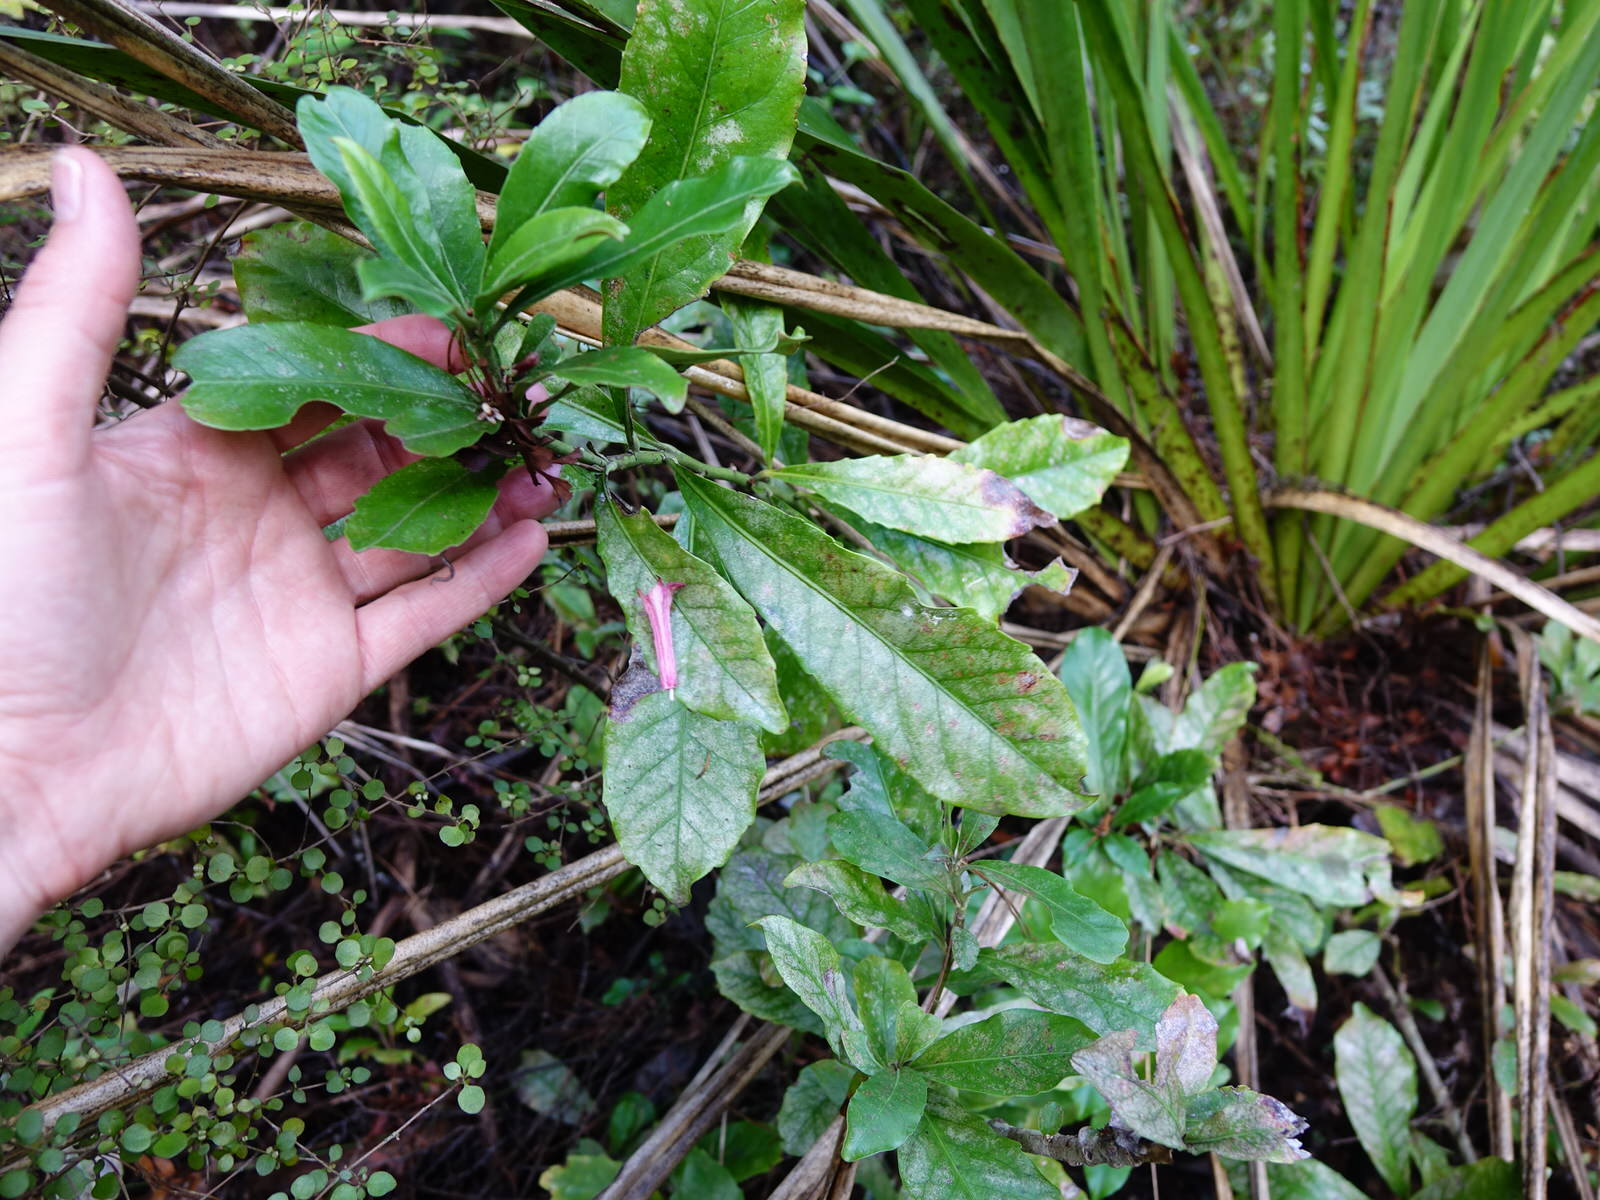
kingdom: Plantae
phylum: Tracheophyta
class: Magnoliopsida
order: Asterales
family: Alseuosmiaceae
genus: Alseuosmia
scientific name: Alseuosmia macrophylla
